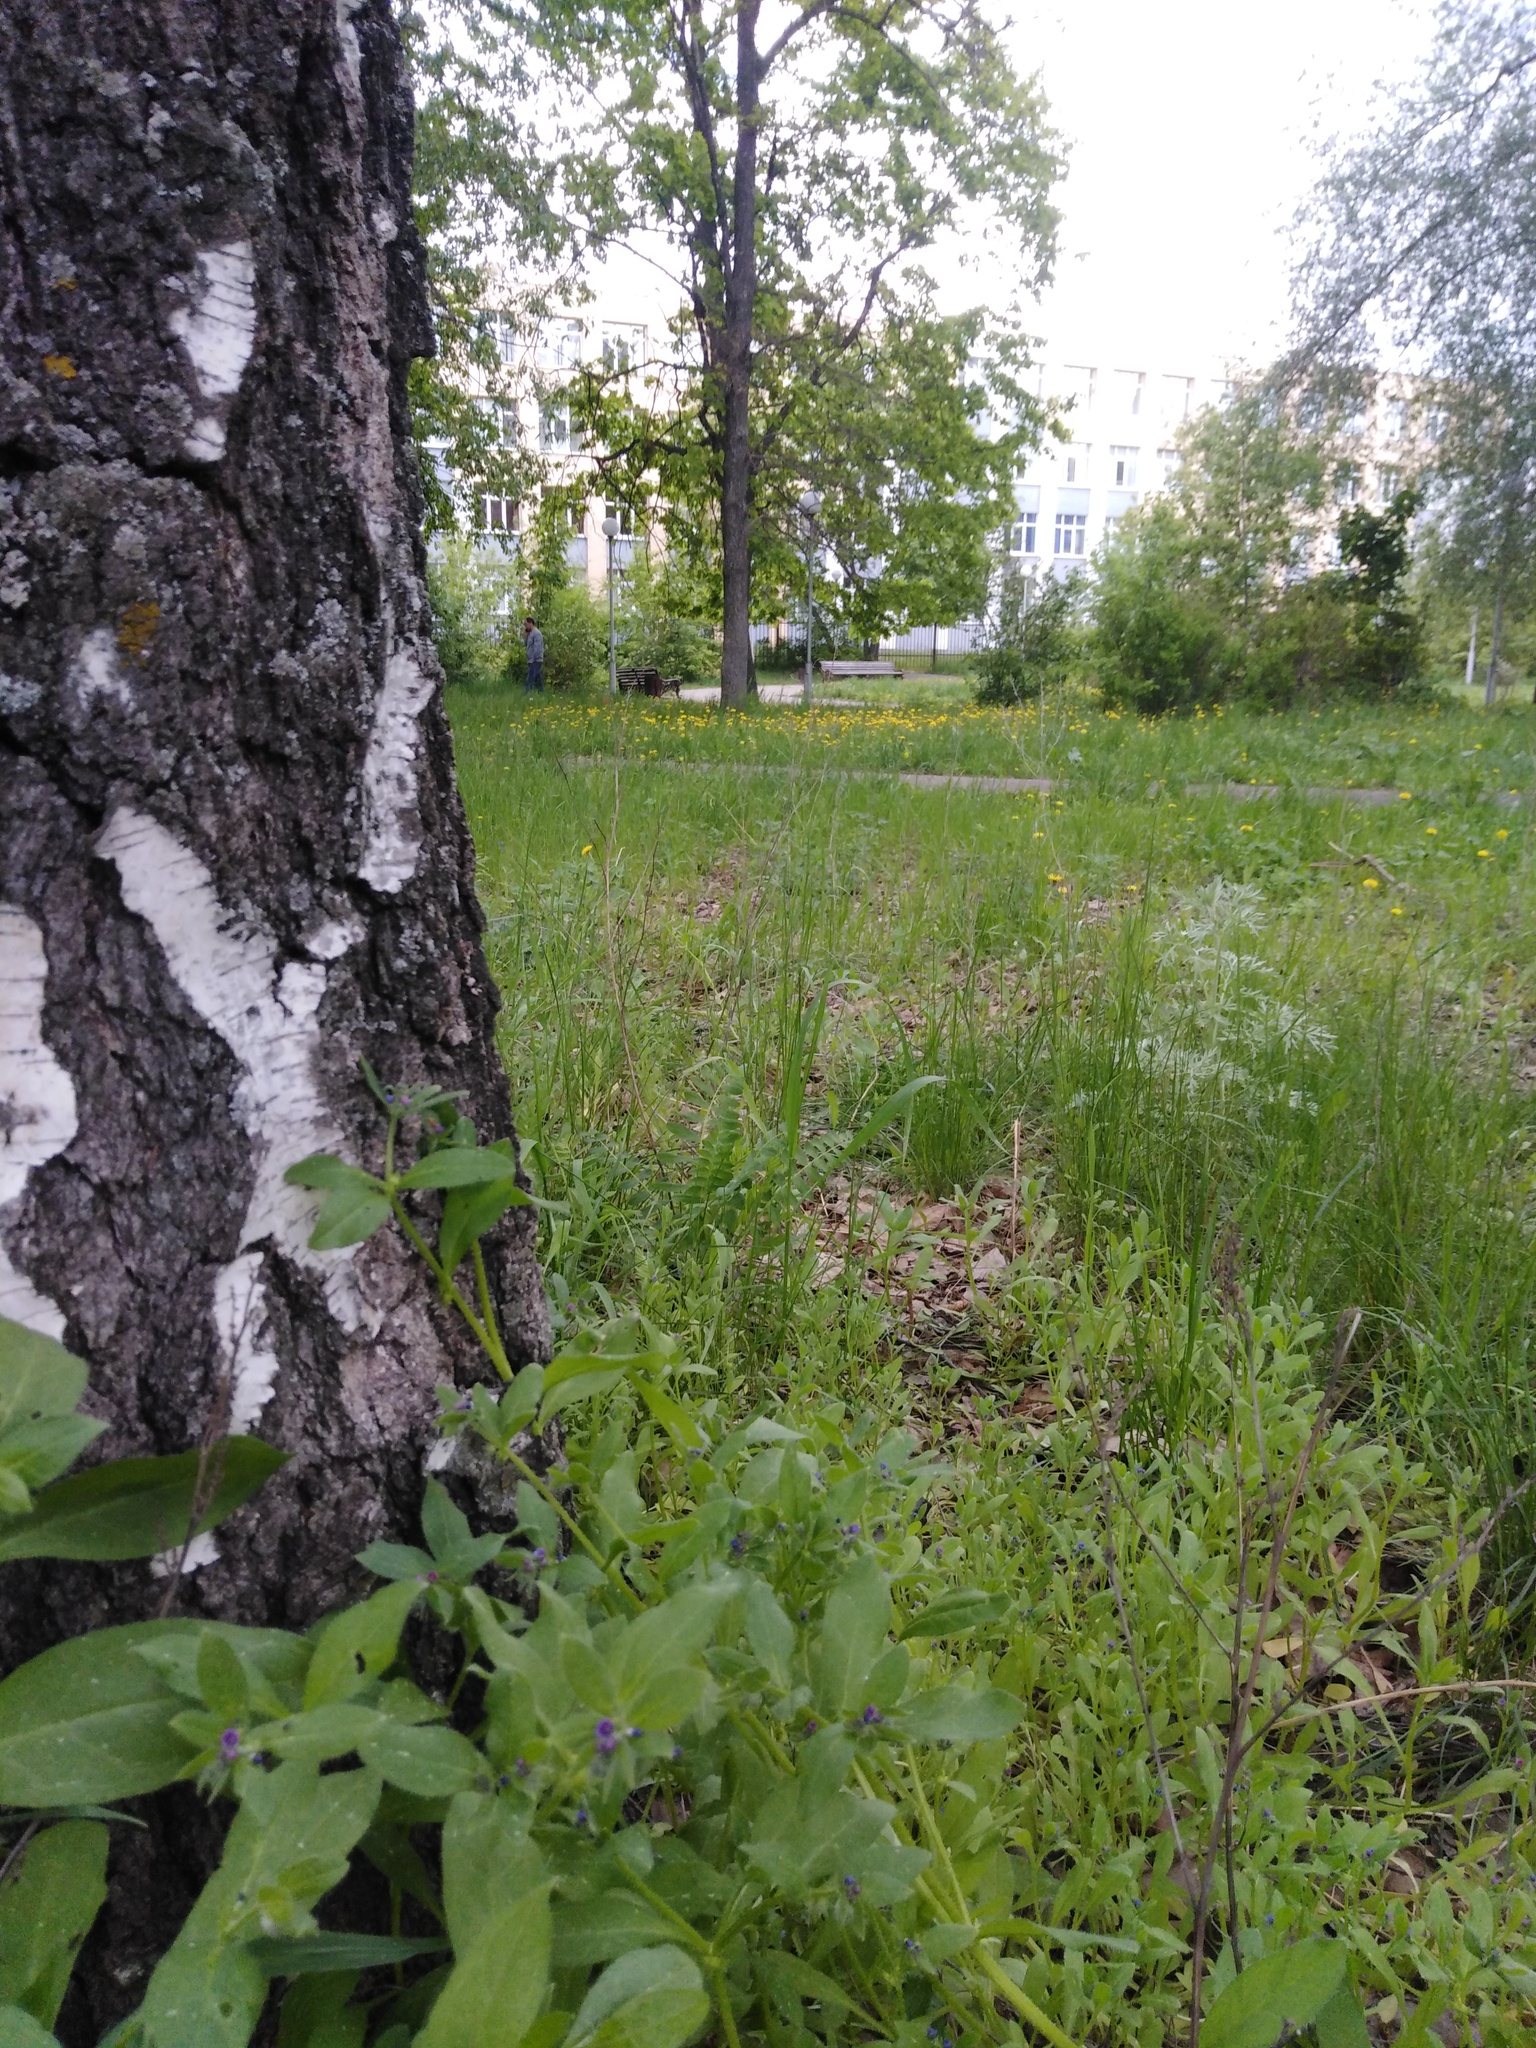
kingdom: Plantae
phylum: Tracheophyta
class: Magnoliopsida
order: Boraginales
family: Boraginaceae
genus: Asperugo
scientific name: Asperugo procumbens
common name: Madwort
